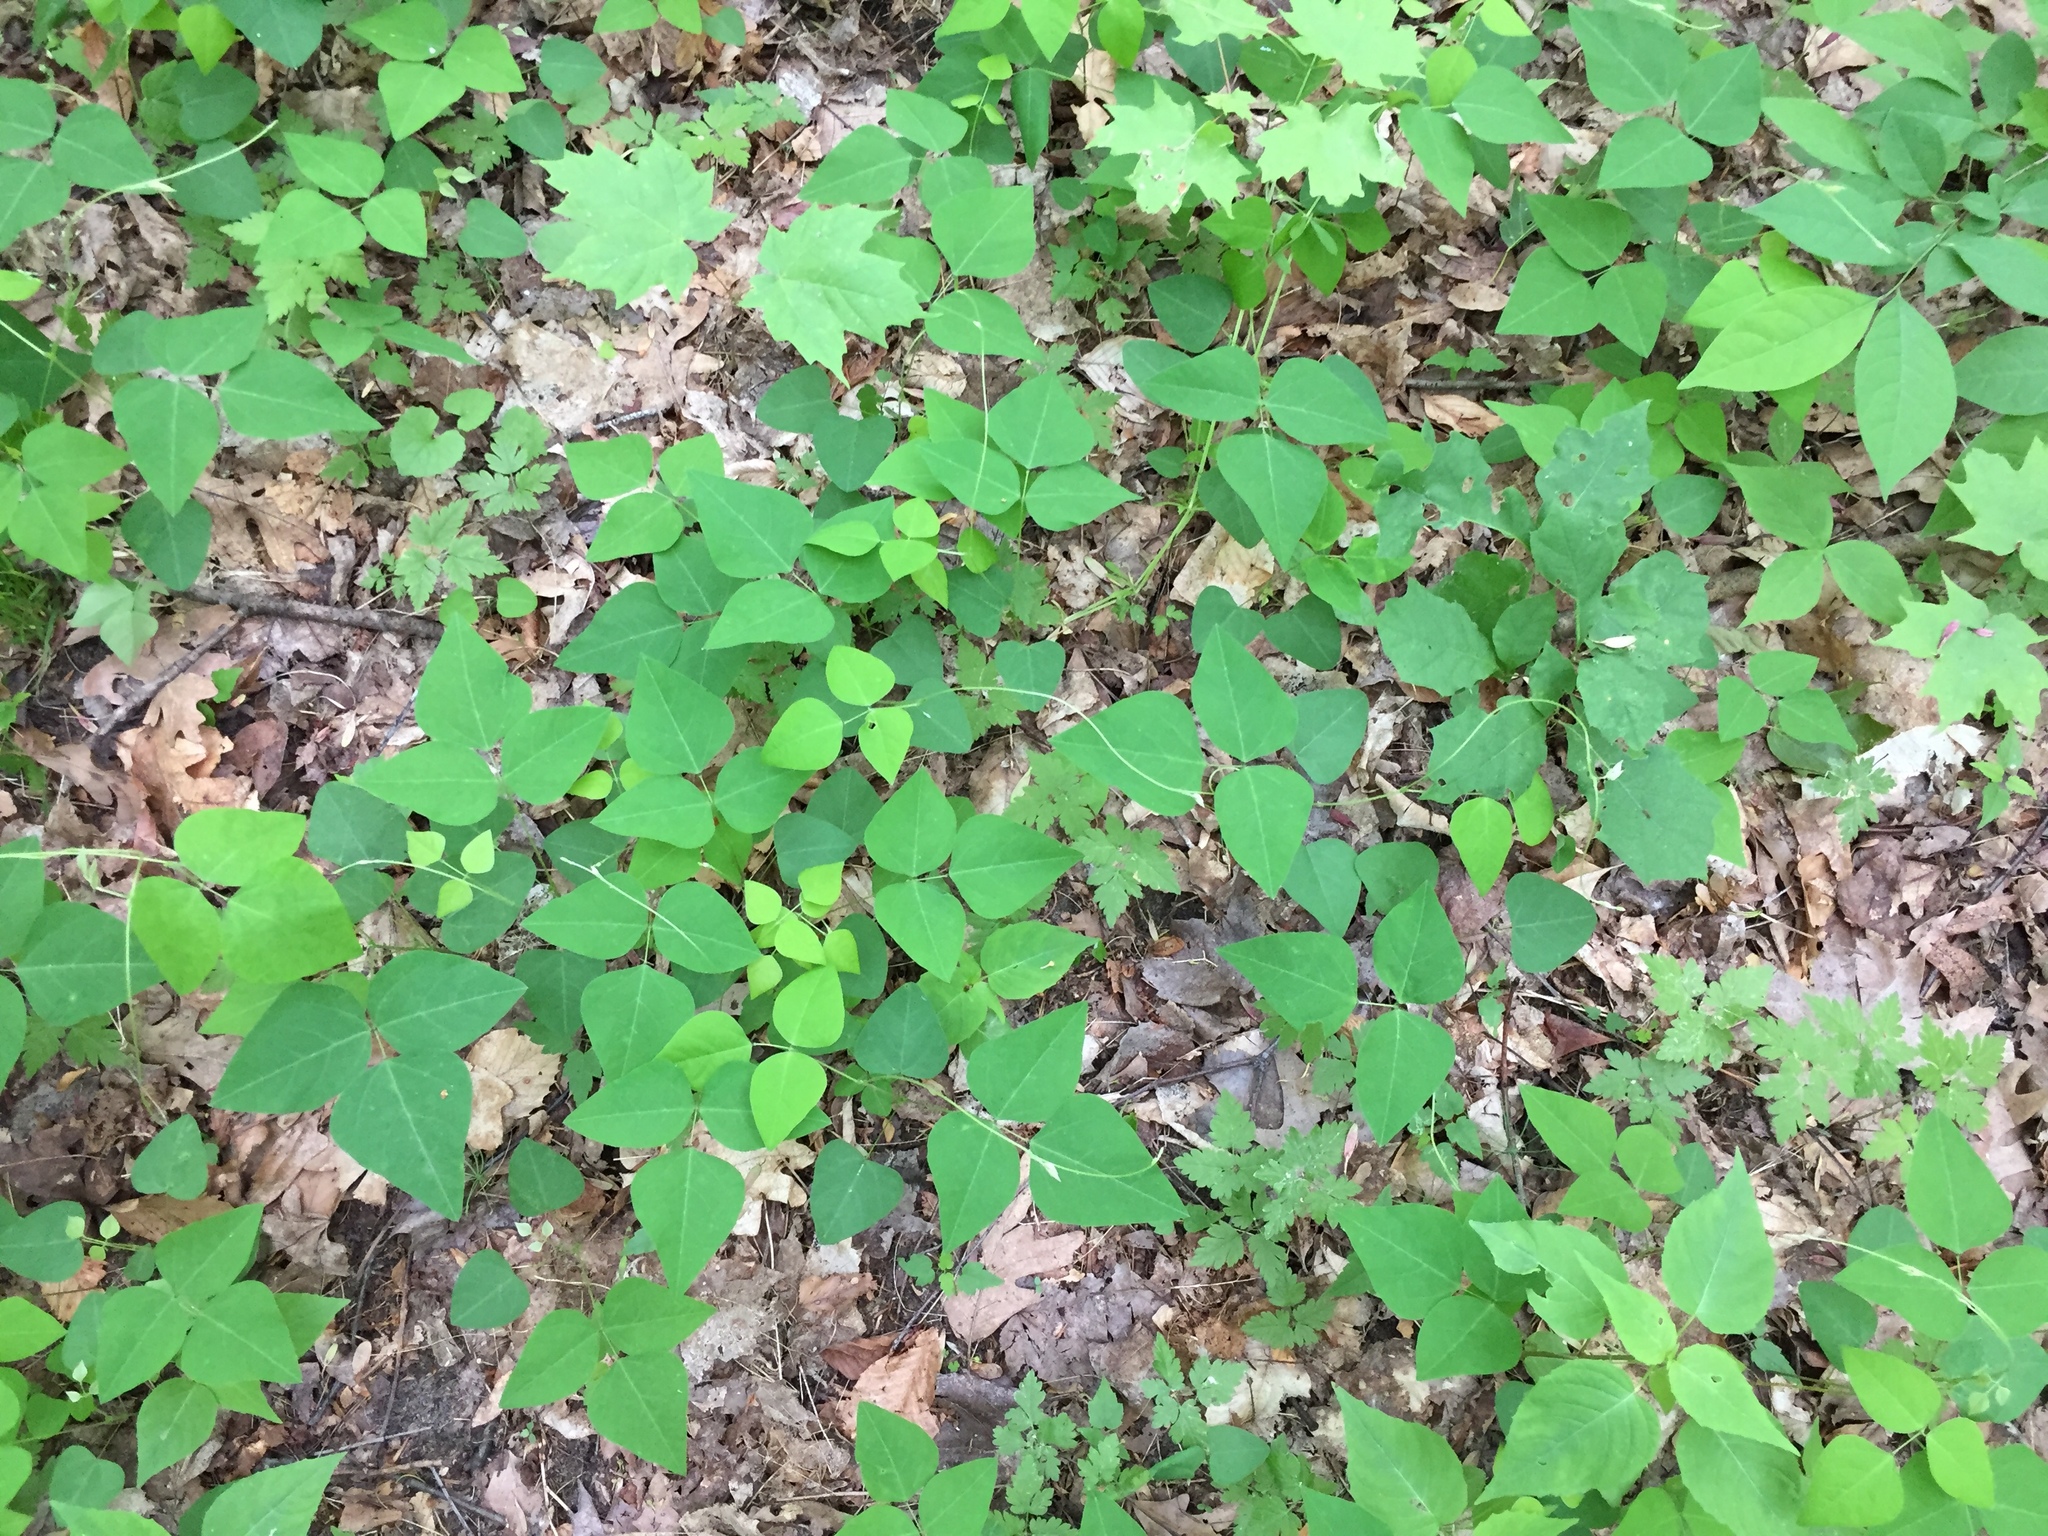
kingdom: Plantae
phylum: Tracheophyta
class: Magnoliopsida
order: Fabales
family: Fabaceae
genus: Amphicarpaea
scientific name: Amphicarpaea bracteata
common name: American hog peanut
